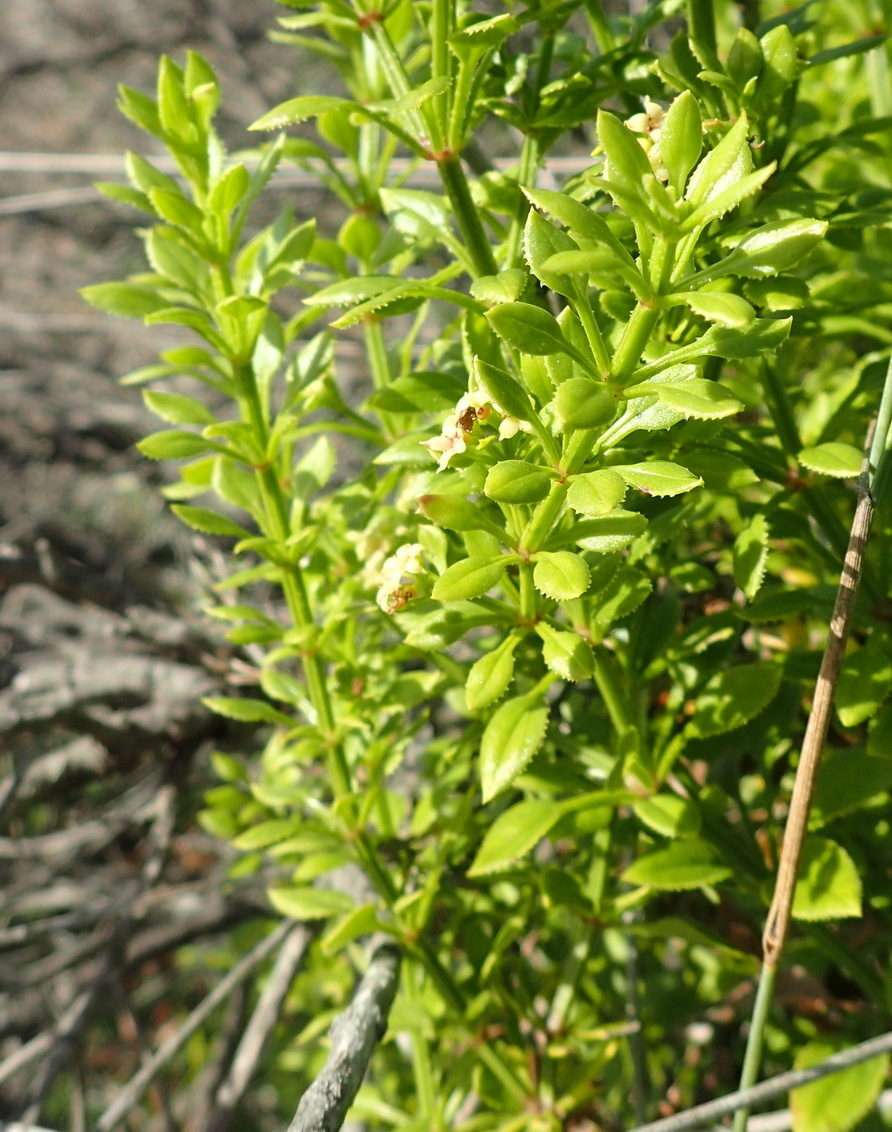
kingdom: Plantae
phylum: Tracheophyta
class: Magnoliopsida
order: Gentianales
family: Rubiaceae
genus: Rubia
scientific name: Rubia petiolaris
